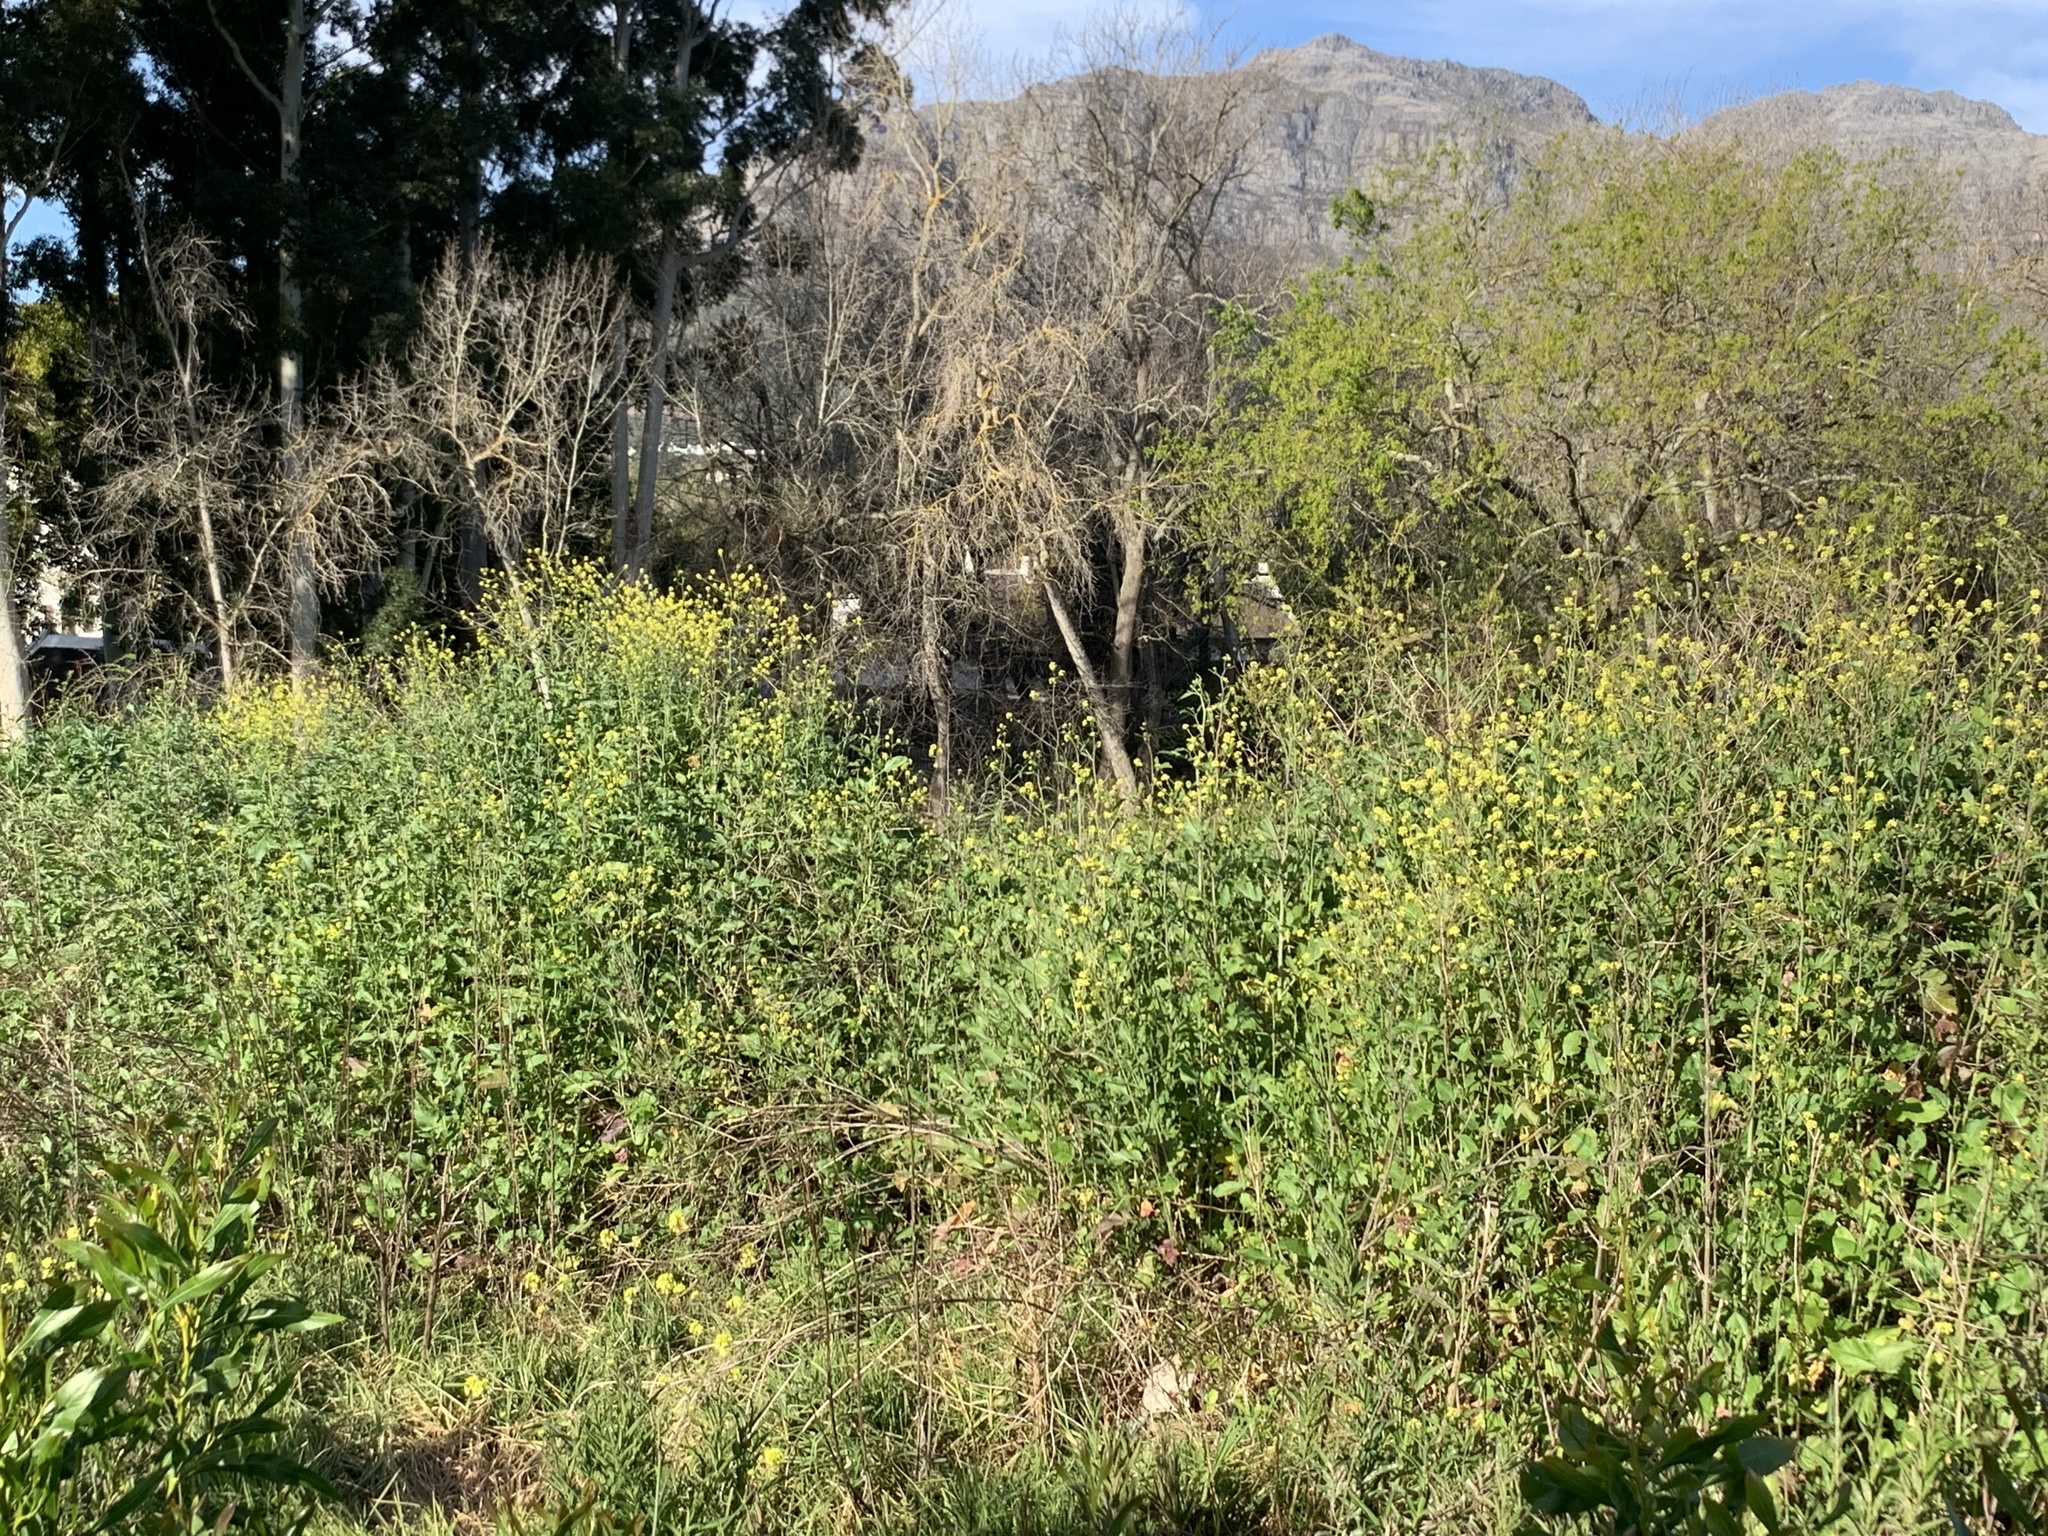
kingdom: Plantae
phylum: Tracheophyta
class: Magnoliopsida
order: Brassicales
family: Brassicaceae
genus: Rapistrum
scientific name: Rapistrum rugosum
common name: Annual bastardcabbage
